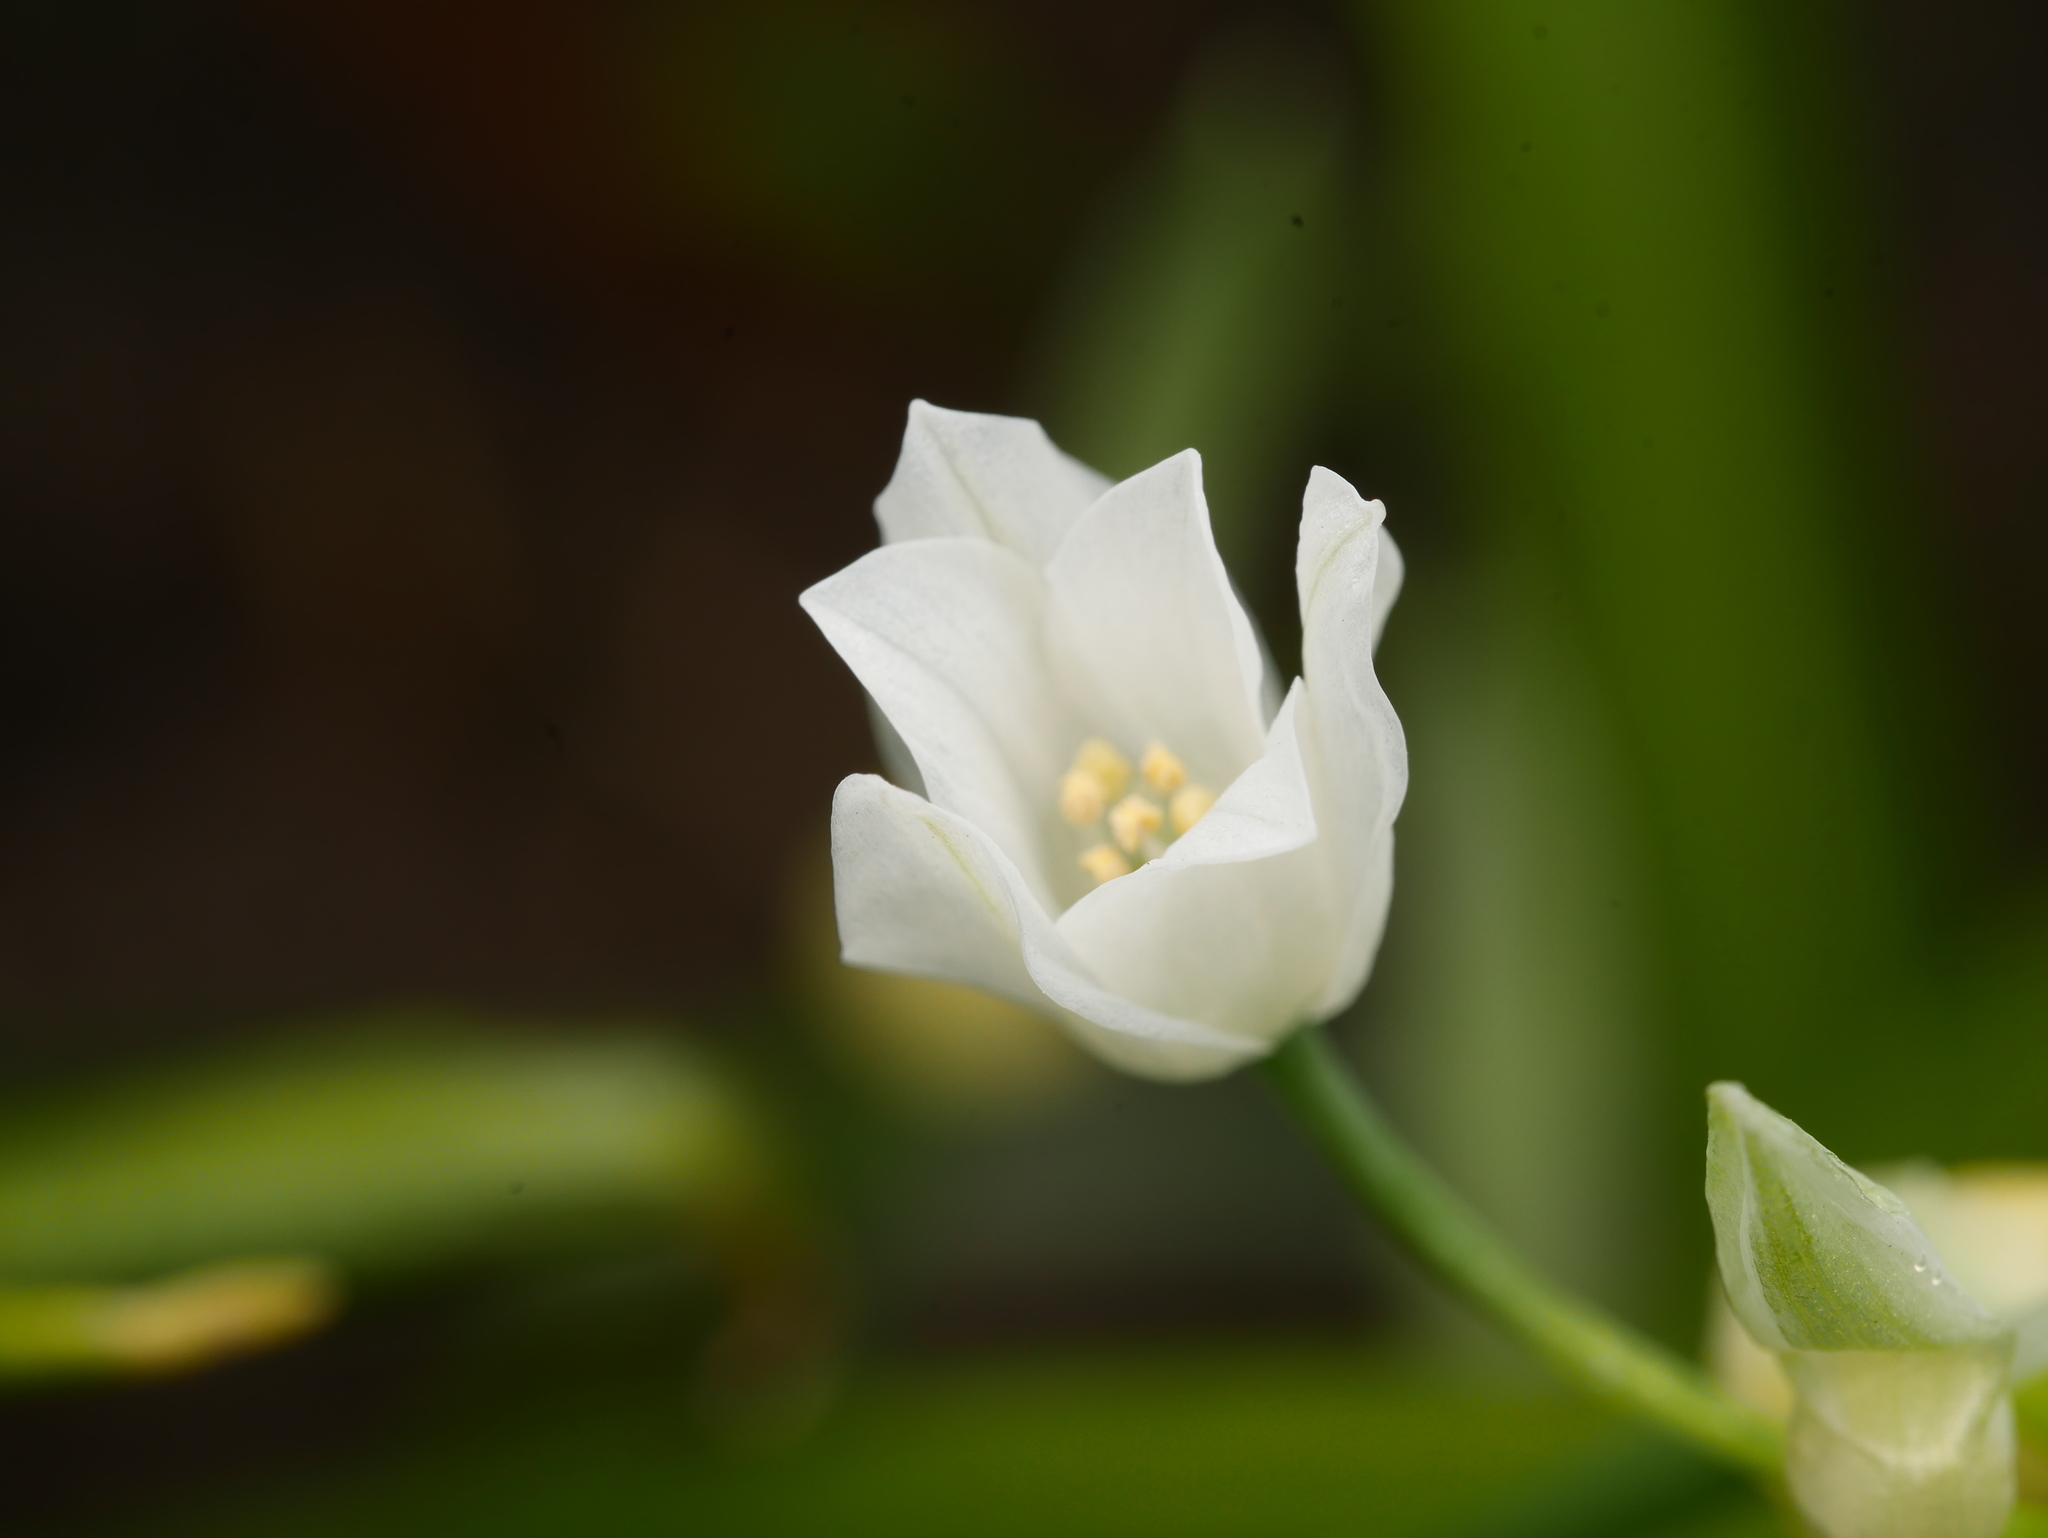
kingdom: Plantae
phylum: Tracheophyta
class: Liliopsida
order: Asparagales
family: Amaryllidaceae
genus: Allium
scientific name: Allium paradoxum
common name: Few-flowered garlic
